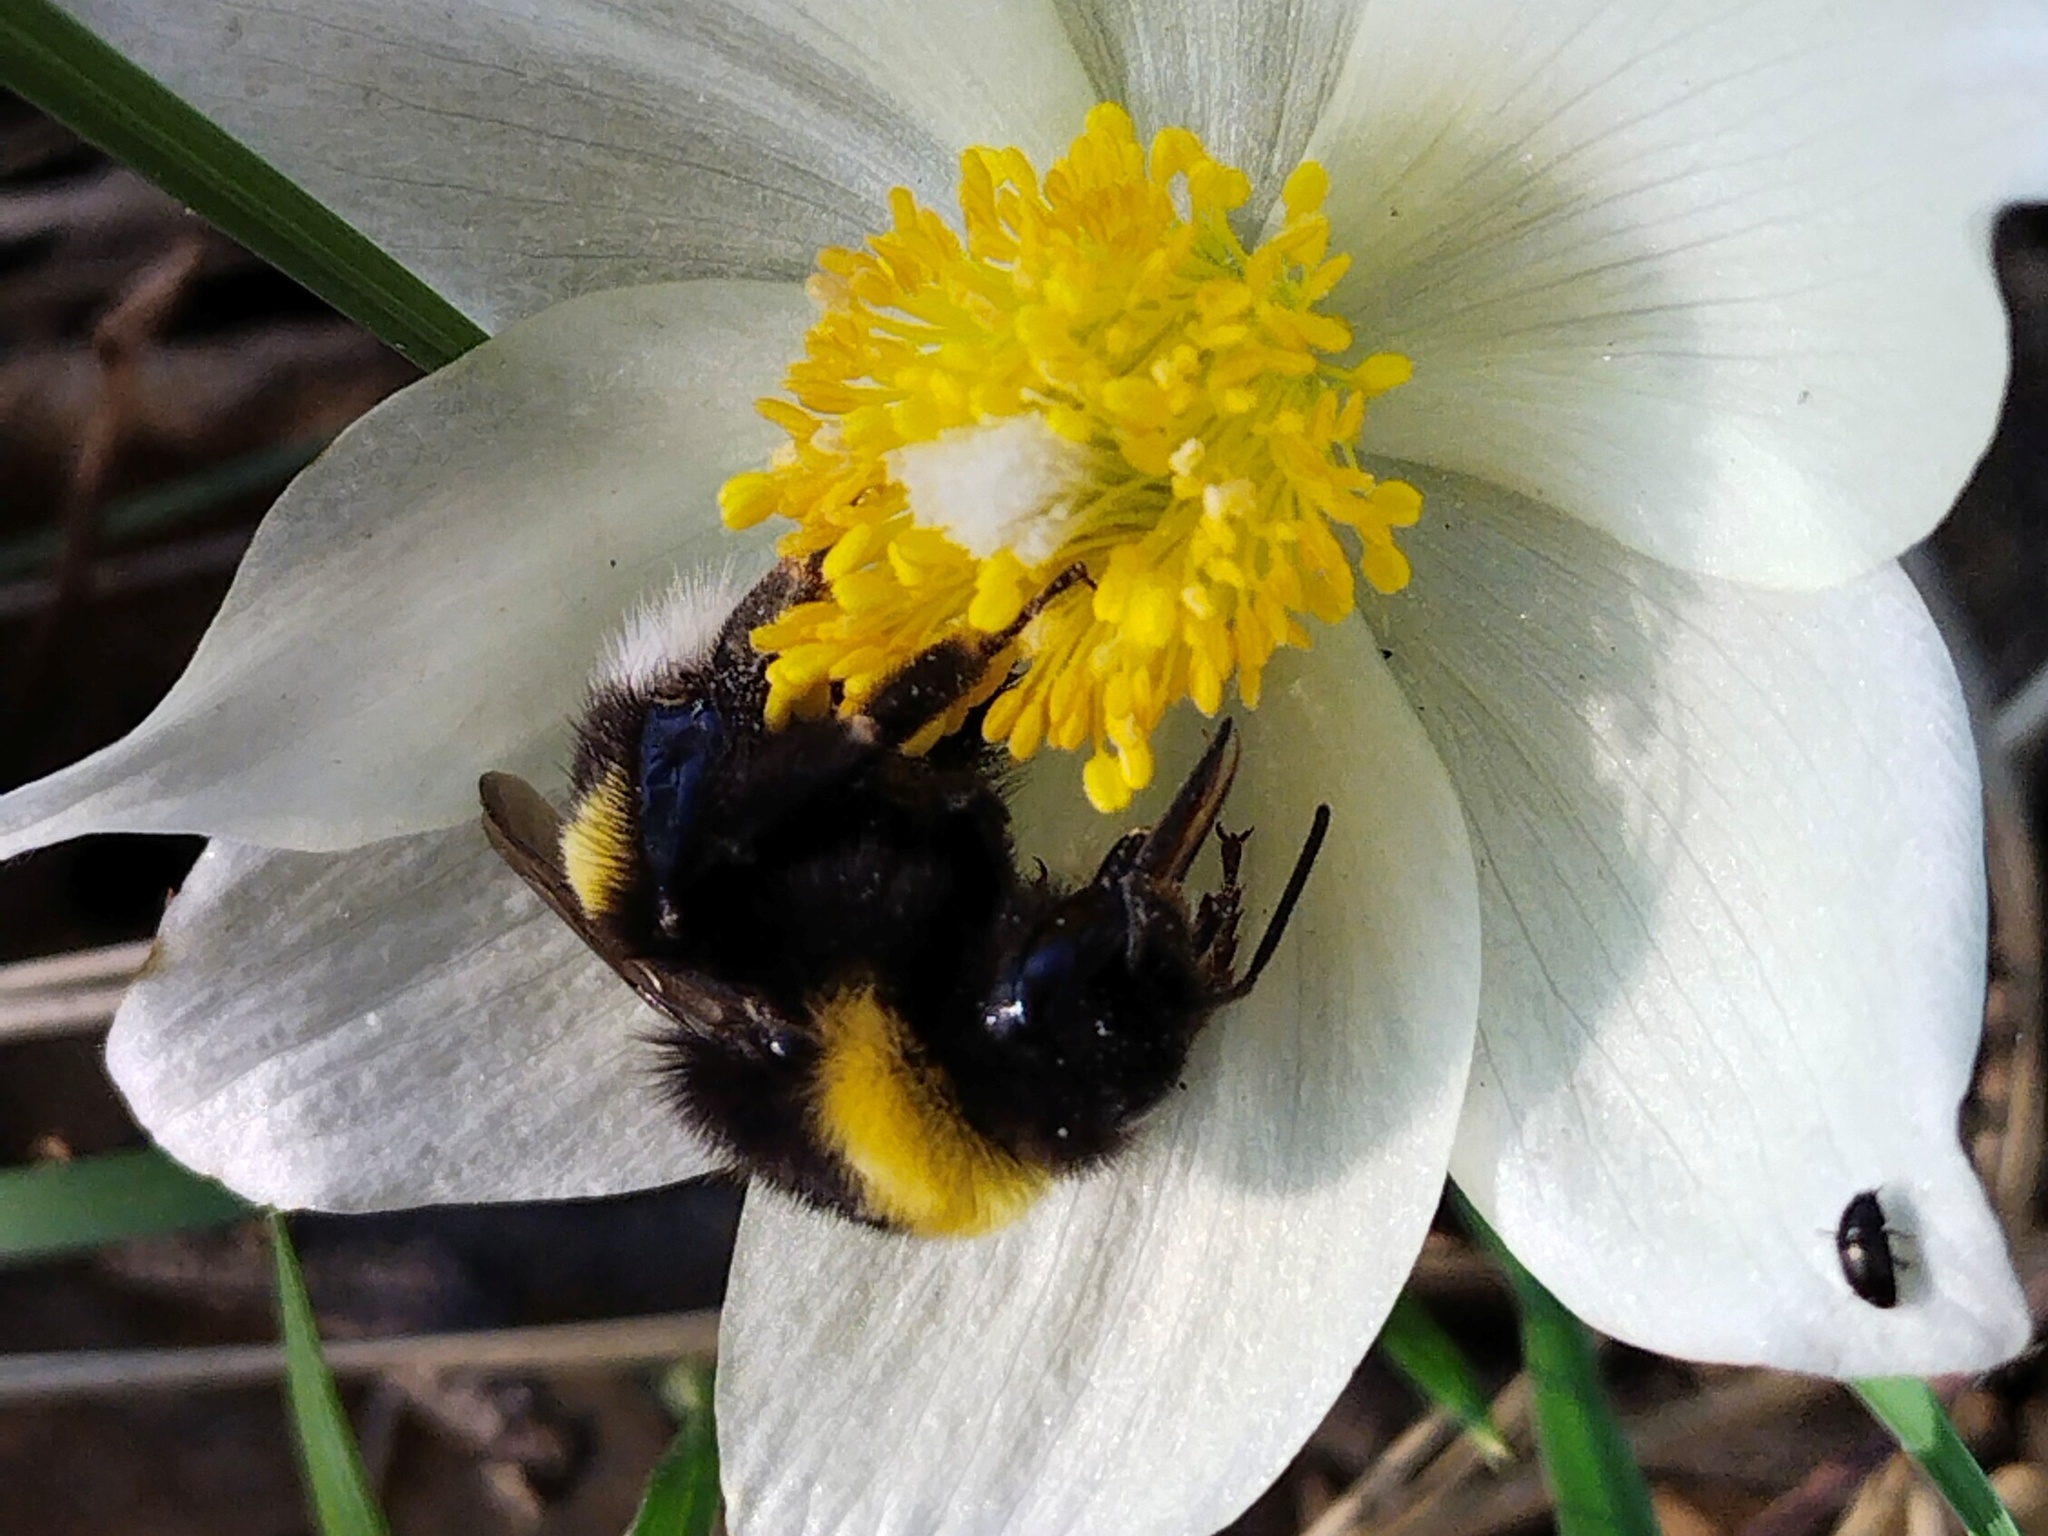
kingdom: Animalia
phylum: Arthropoda
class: Insecta
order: Hymenoptera
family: Apidae
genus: Bombus
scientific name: Bombus
